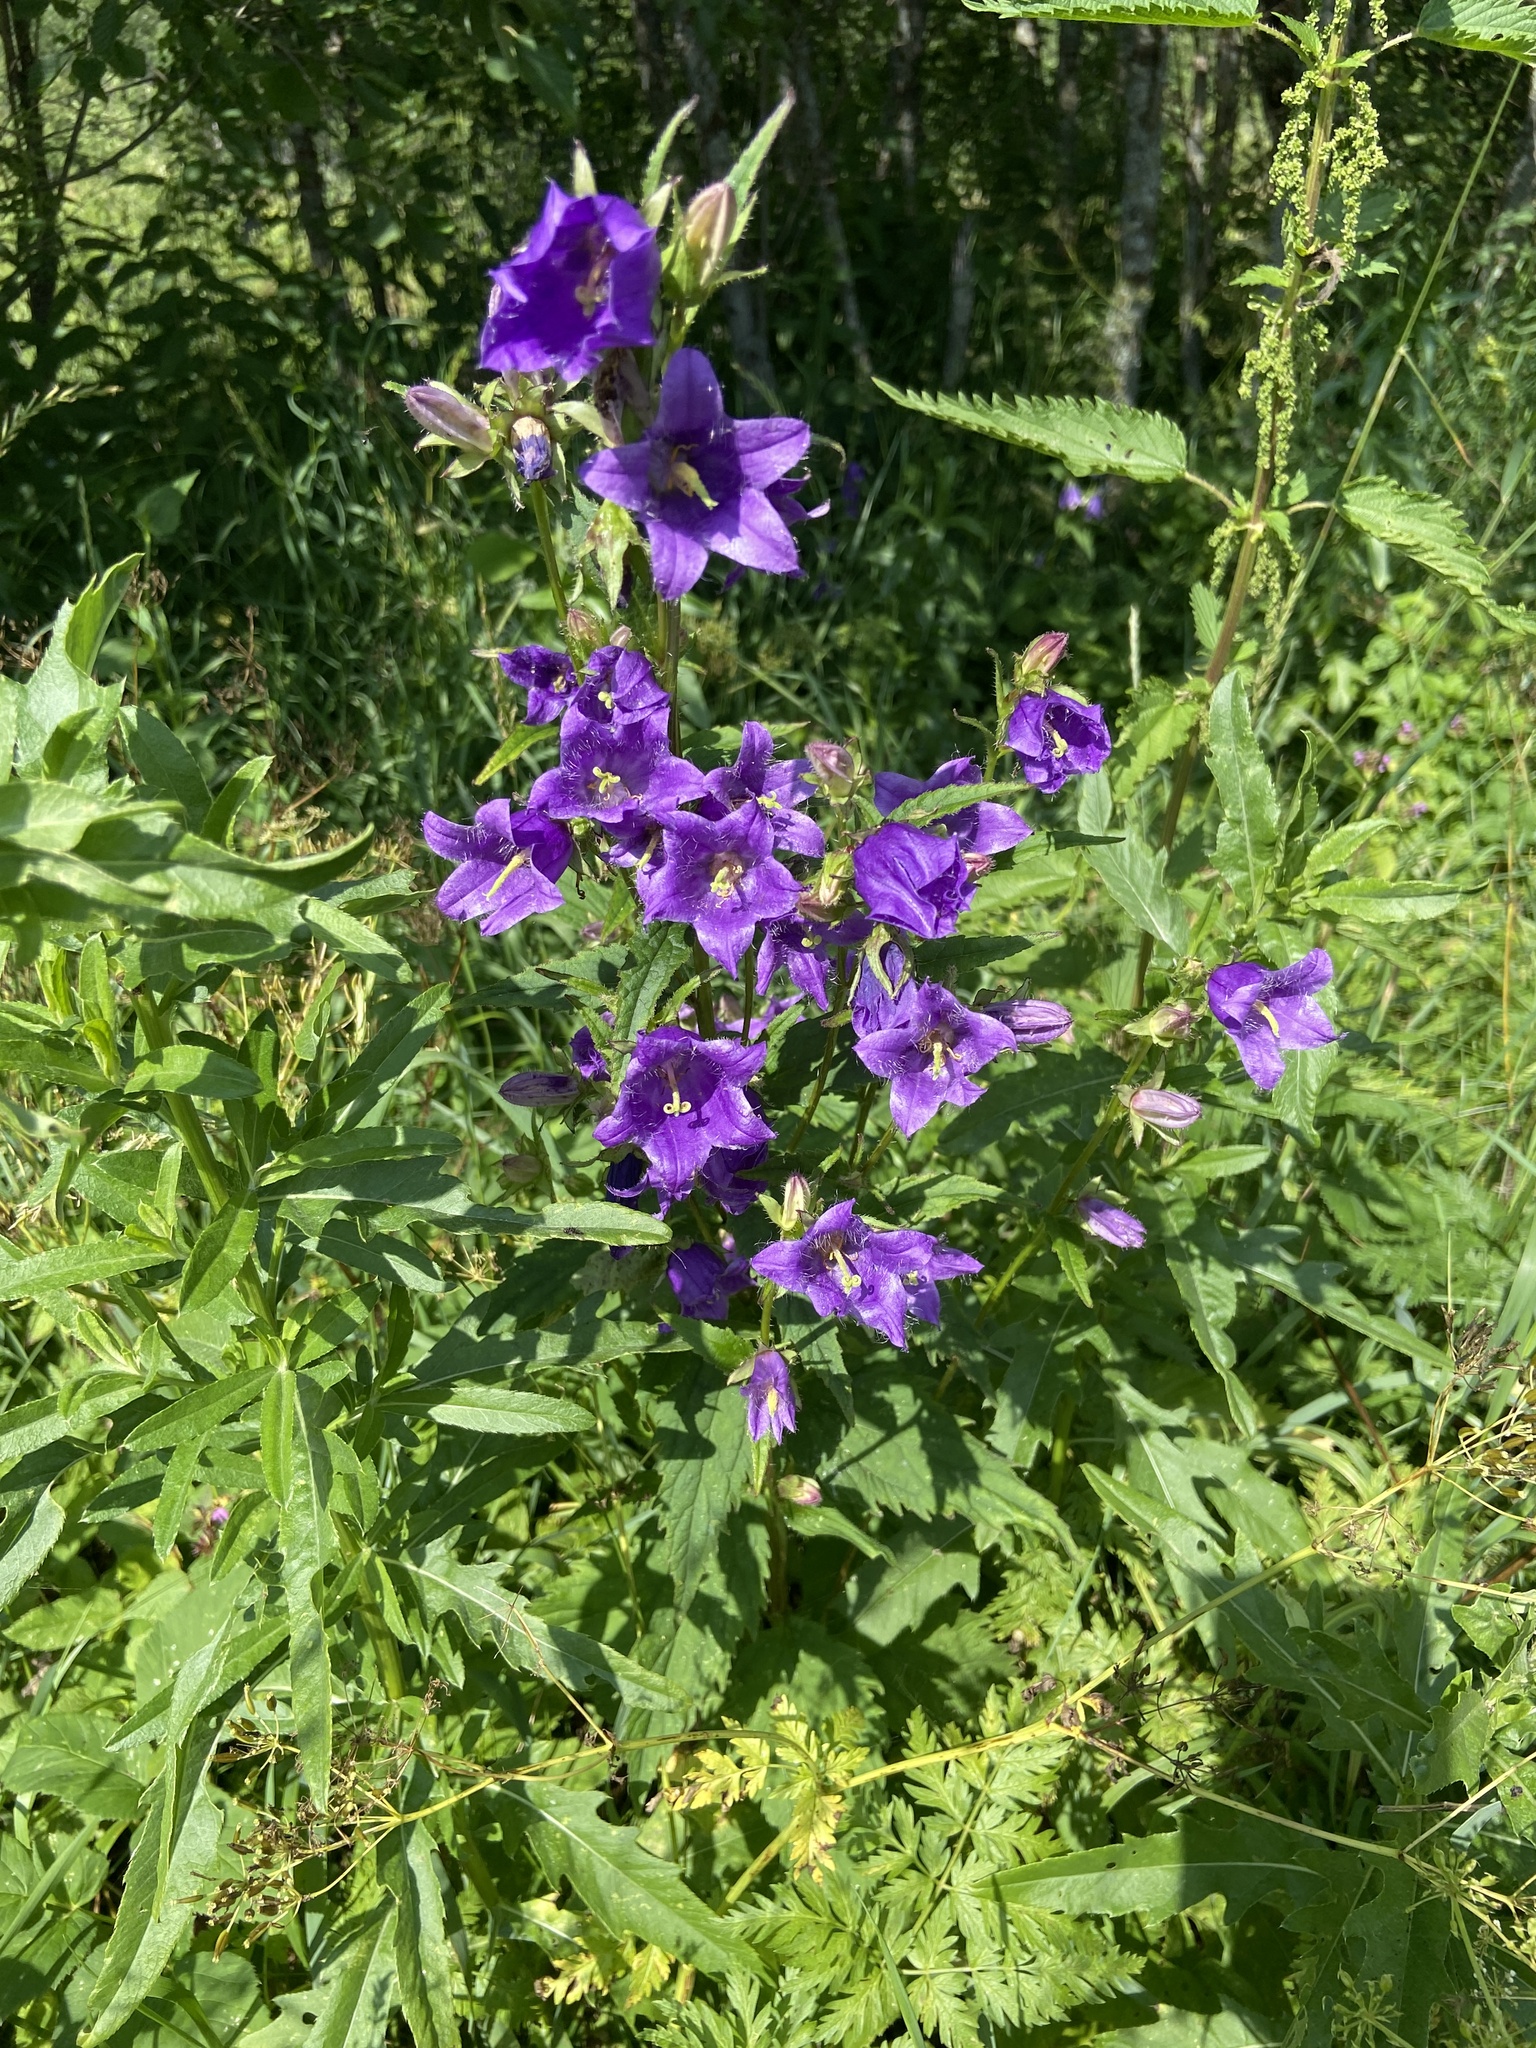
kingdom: Plantae
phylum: Tracheophyta
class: Magnoliopsida
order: Asterales
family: Campanulaceae
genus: Campanula
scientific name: Campanula trachelium
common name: Nettle-leaved bellflower
